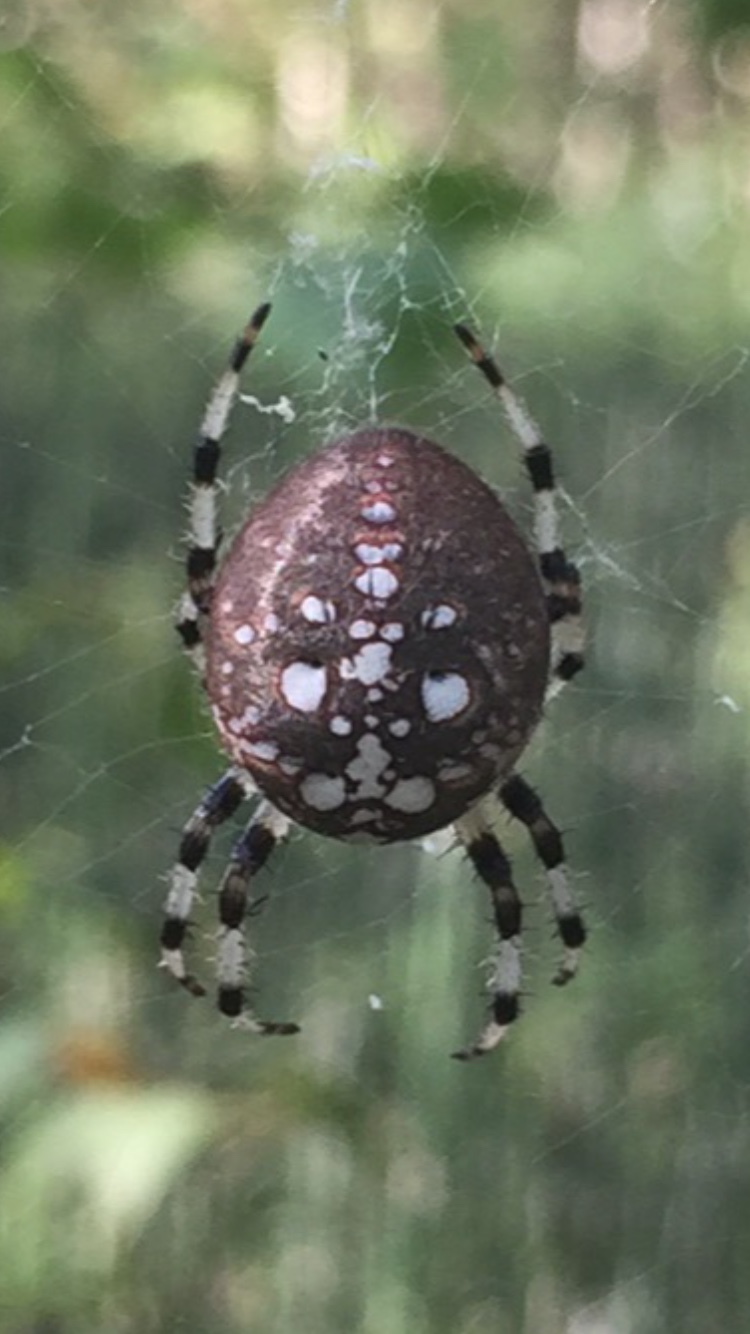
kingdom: Animalia
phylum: Arthropoda
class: Arachnida
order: Araneae
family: Araneidae
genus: Araneus
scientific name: Araneus trifolium
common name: Shamrock orbweaver
